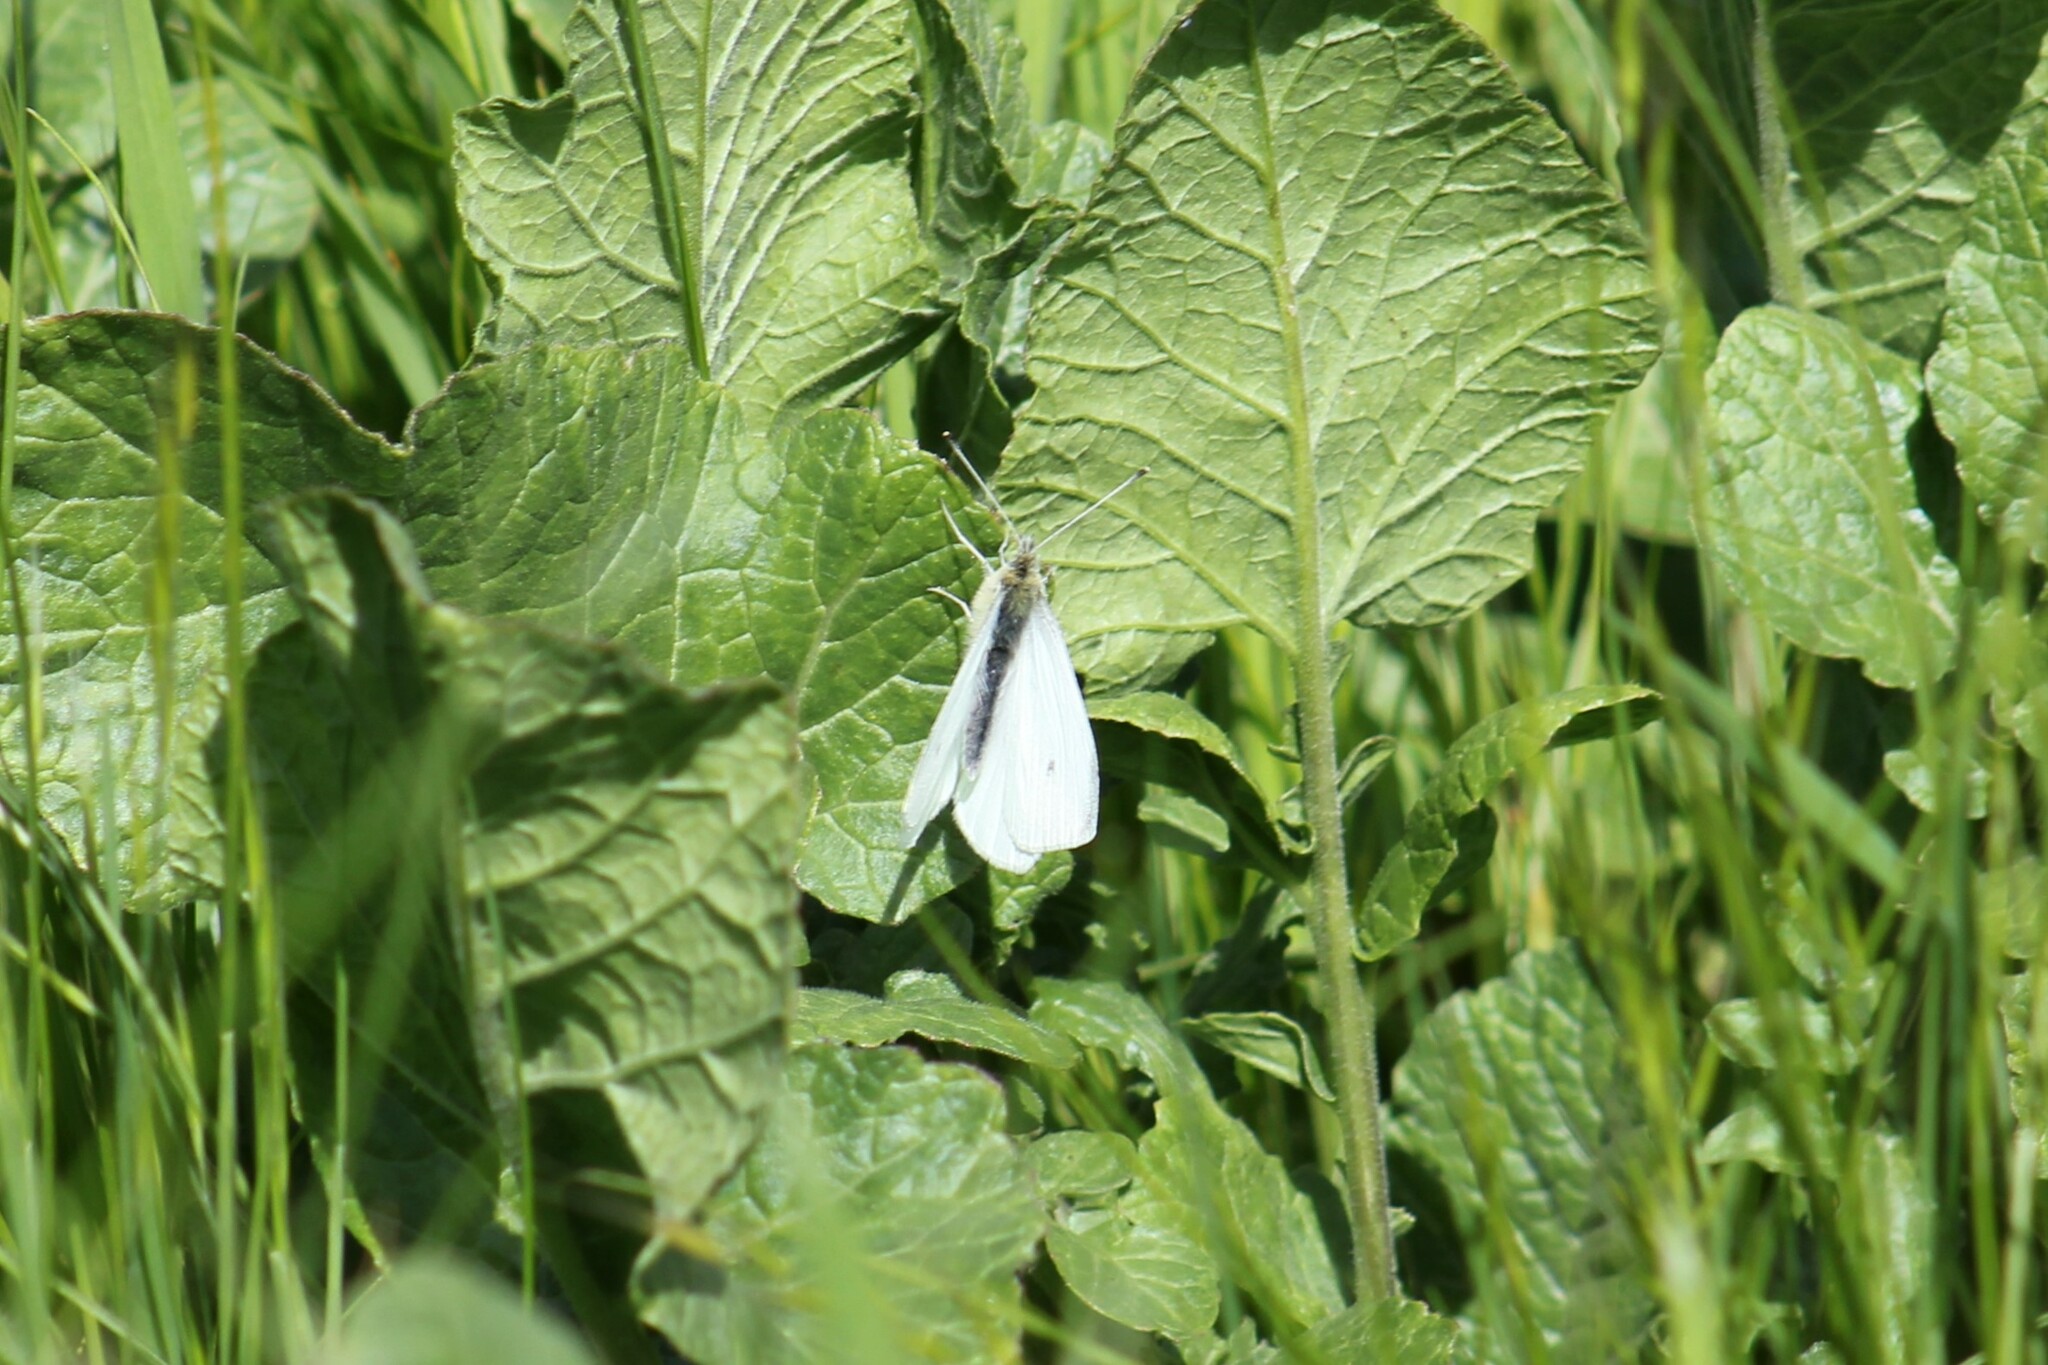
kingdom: Animalia
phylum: Arthropoda
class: Insecta
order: Lepidoptera
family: Pieridae
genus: Pieris
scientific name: Pieris rapae
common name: Small white
